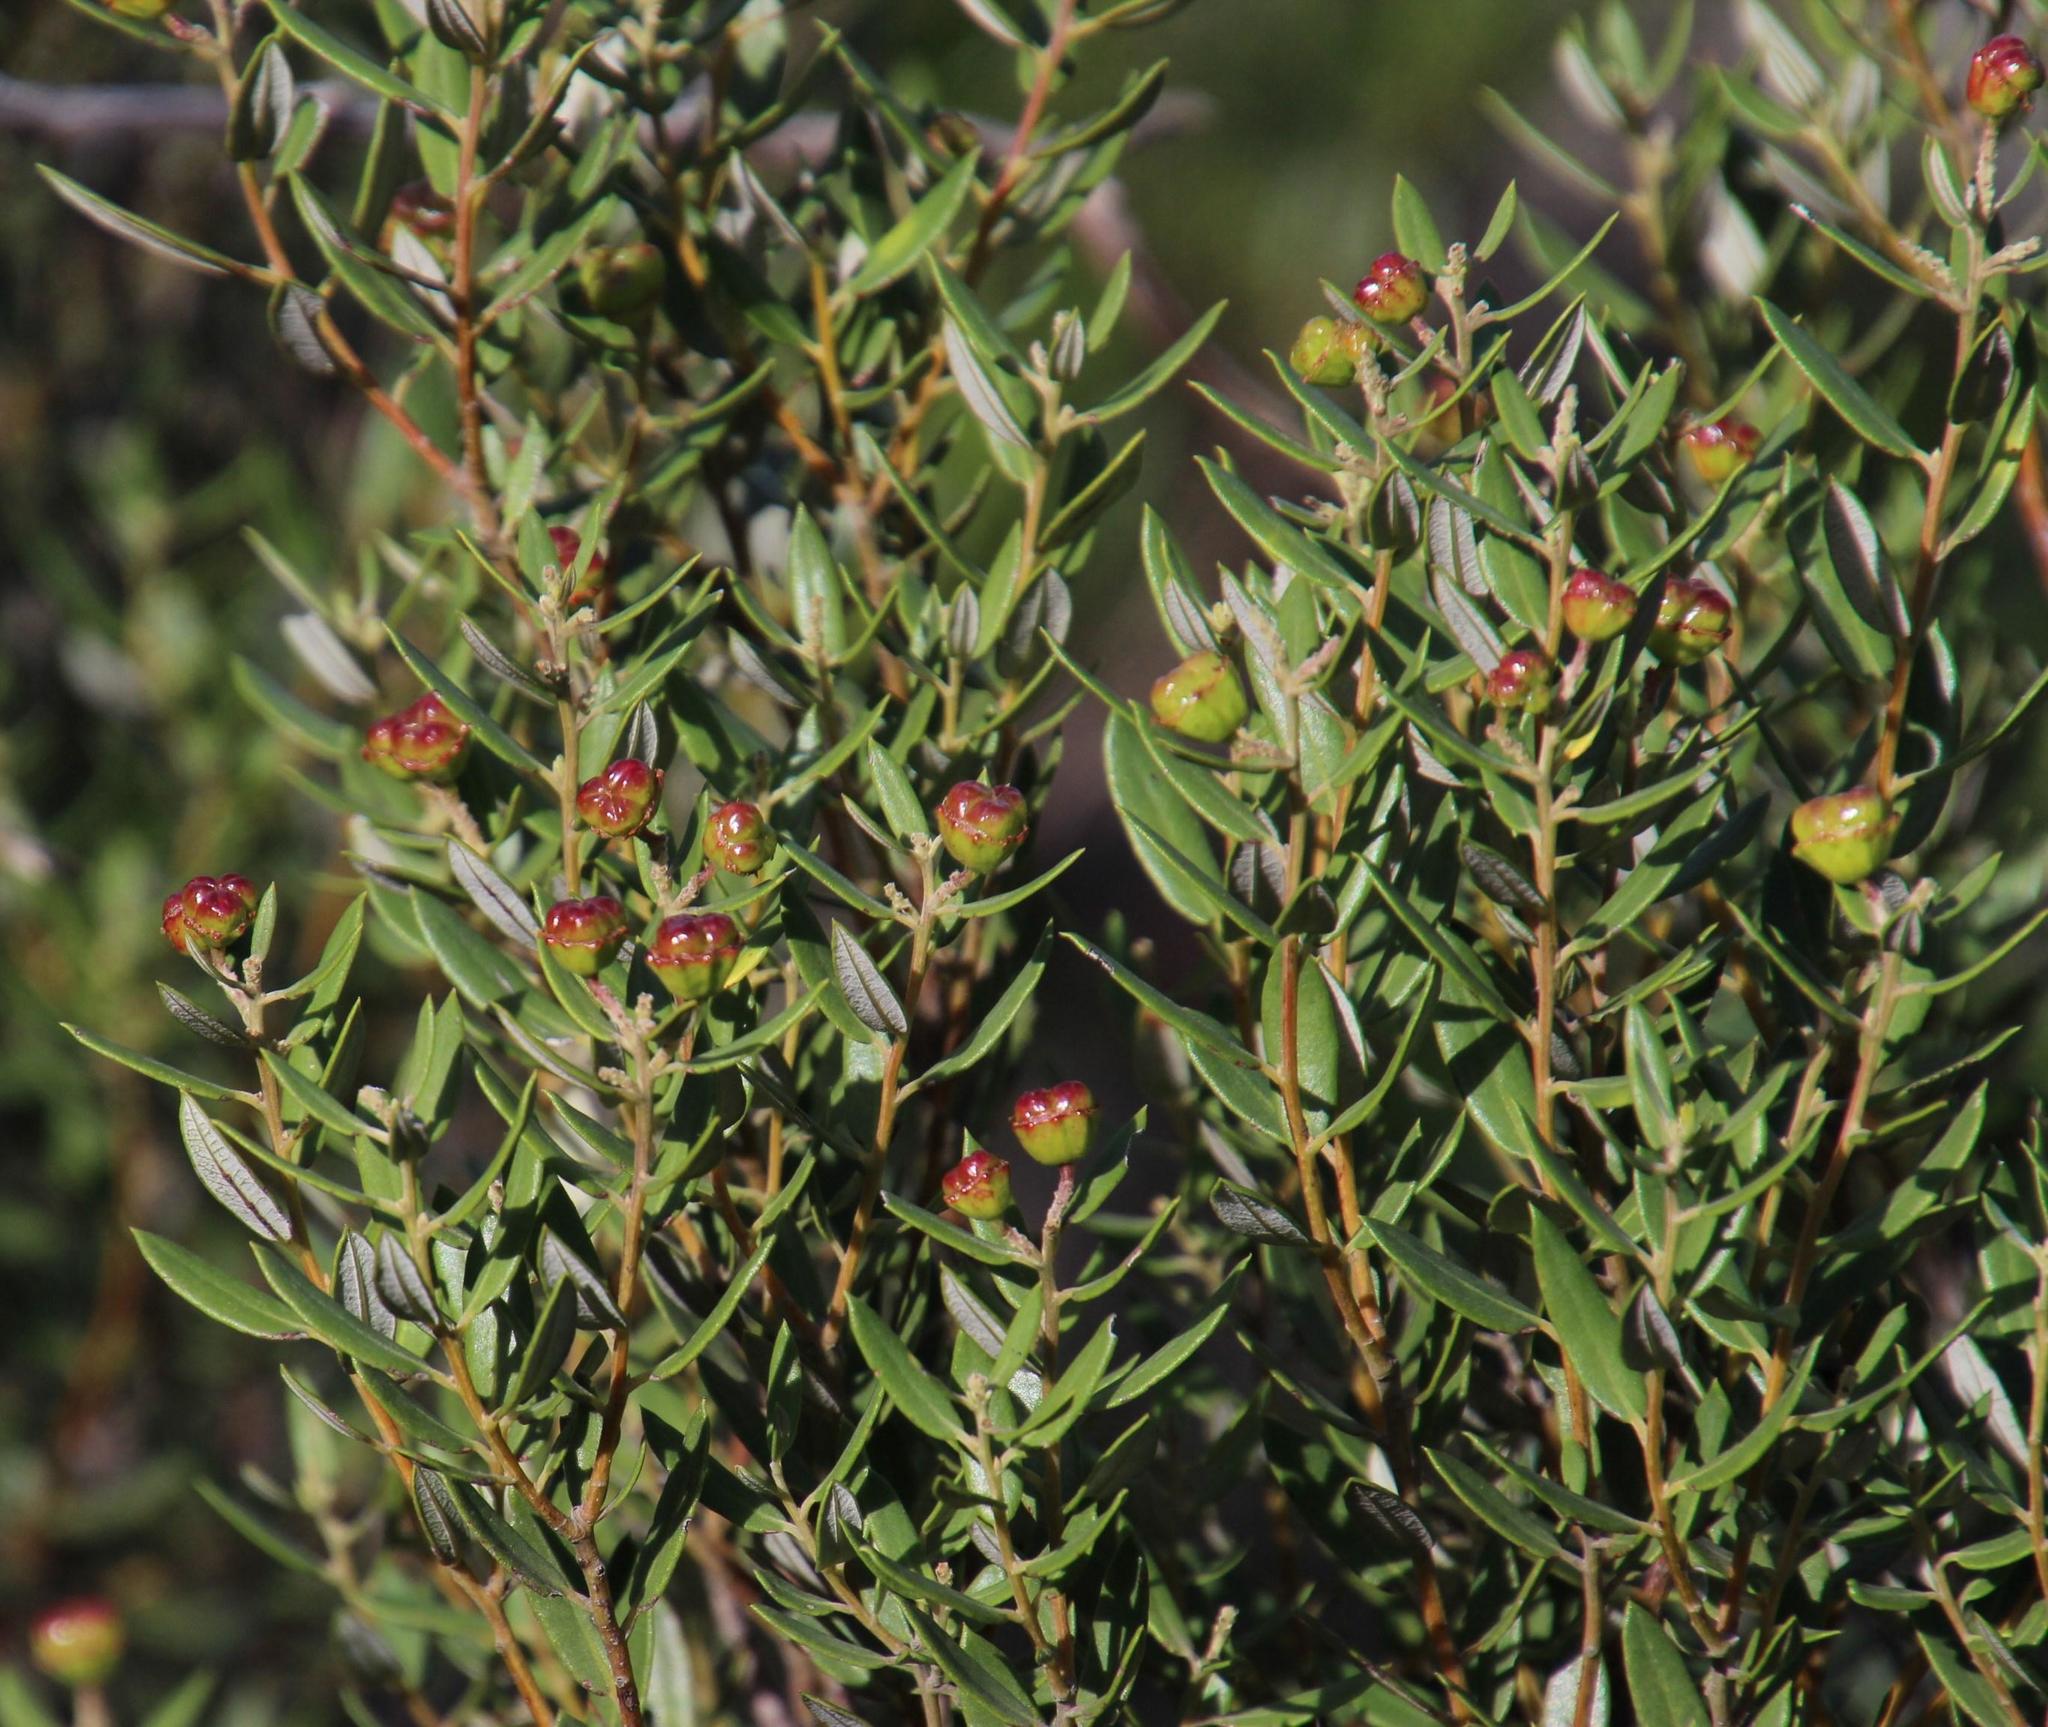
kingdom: Plantae
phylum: Tracheophyta
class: Magnoliopsida
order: Rosales
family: Rhamnaceae
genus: Phylica
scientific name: Phylica oleifolia
